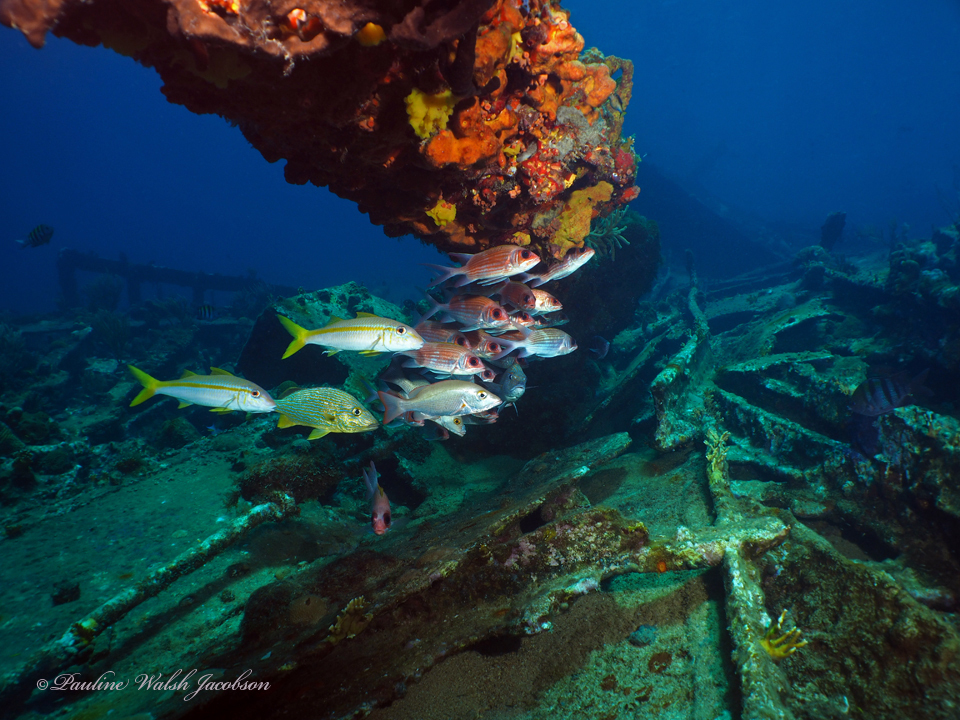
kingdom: Animalia
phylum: Chordata
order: Perciformes
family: Mullidae
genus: Mulloidichthys
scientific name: Mulloidichthys martinicus
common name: Yellow goatfish
